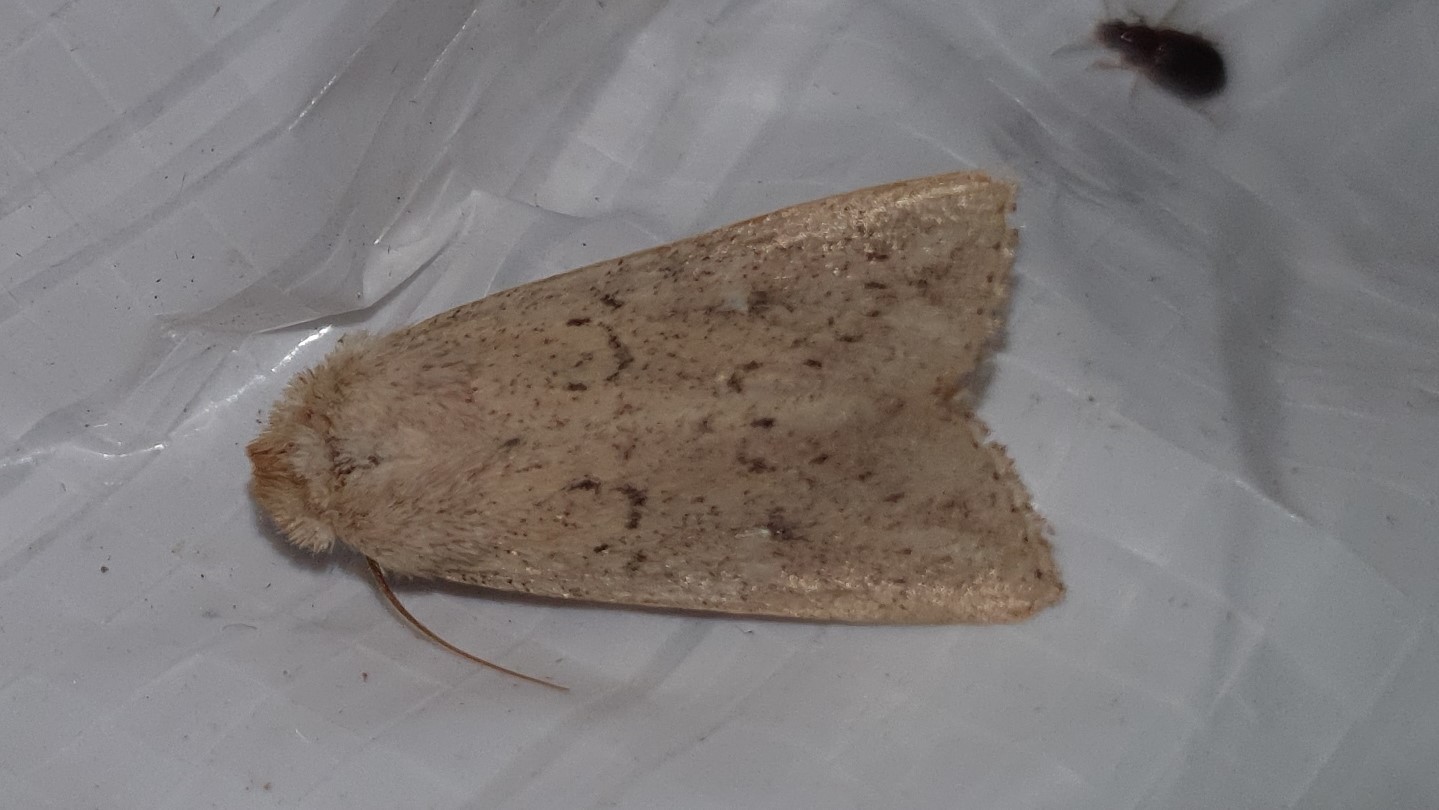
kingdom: Animalia
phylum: Arthropoda
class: Insecta
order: Lepidoptera
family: Noctuidae
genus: Mythimna
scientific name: Mythimna ferrago
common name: Clay
